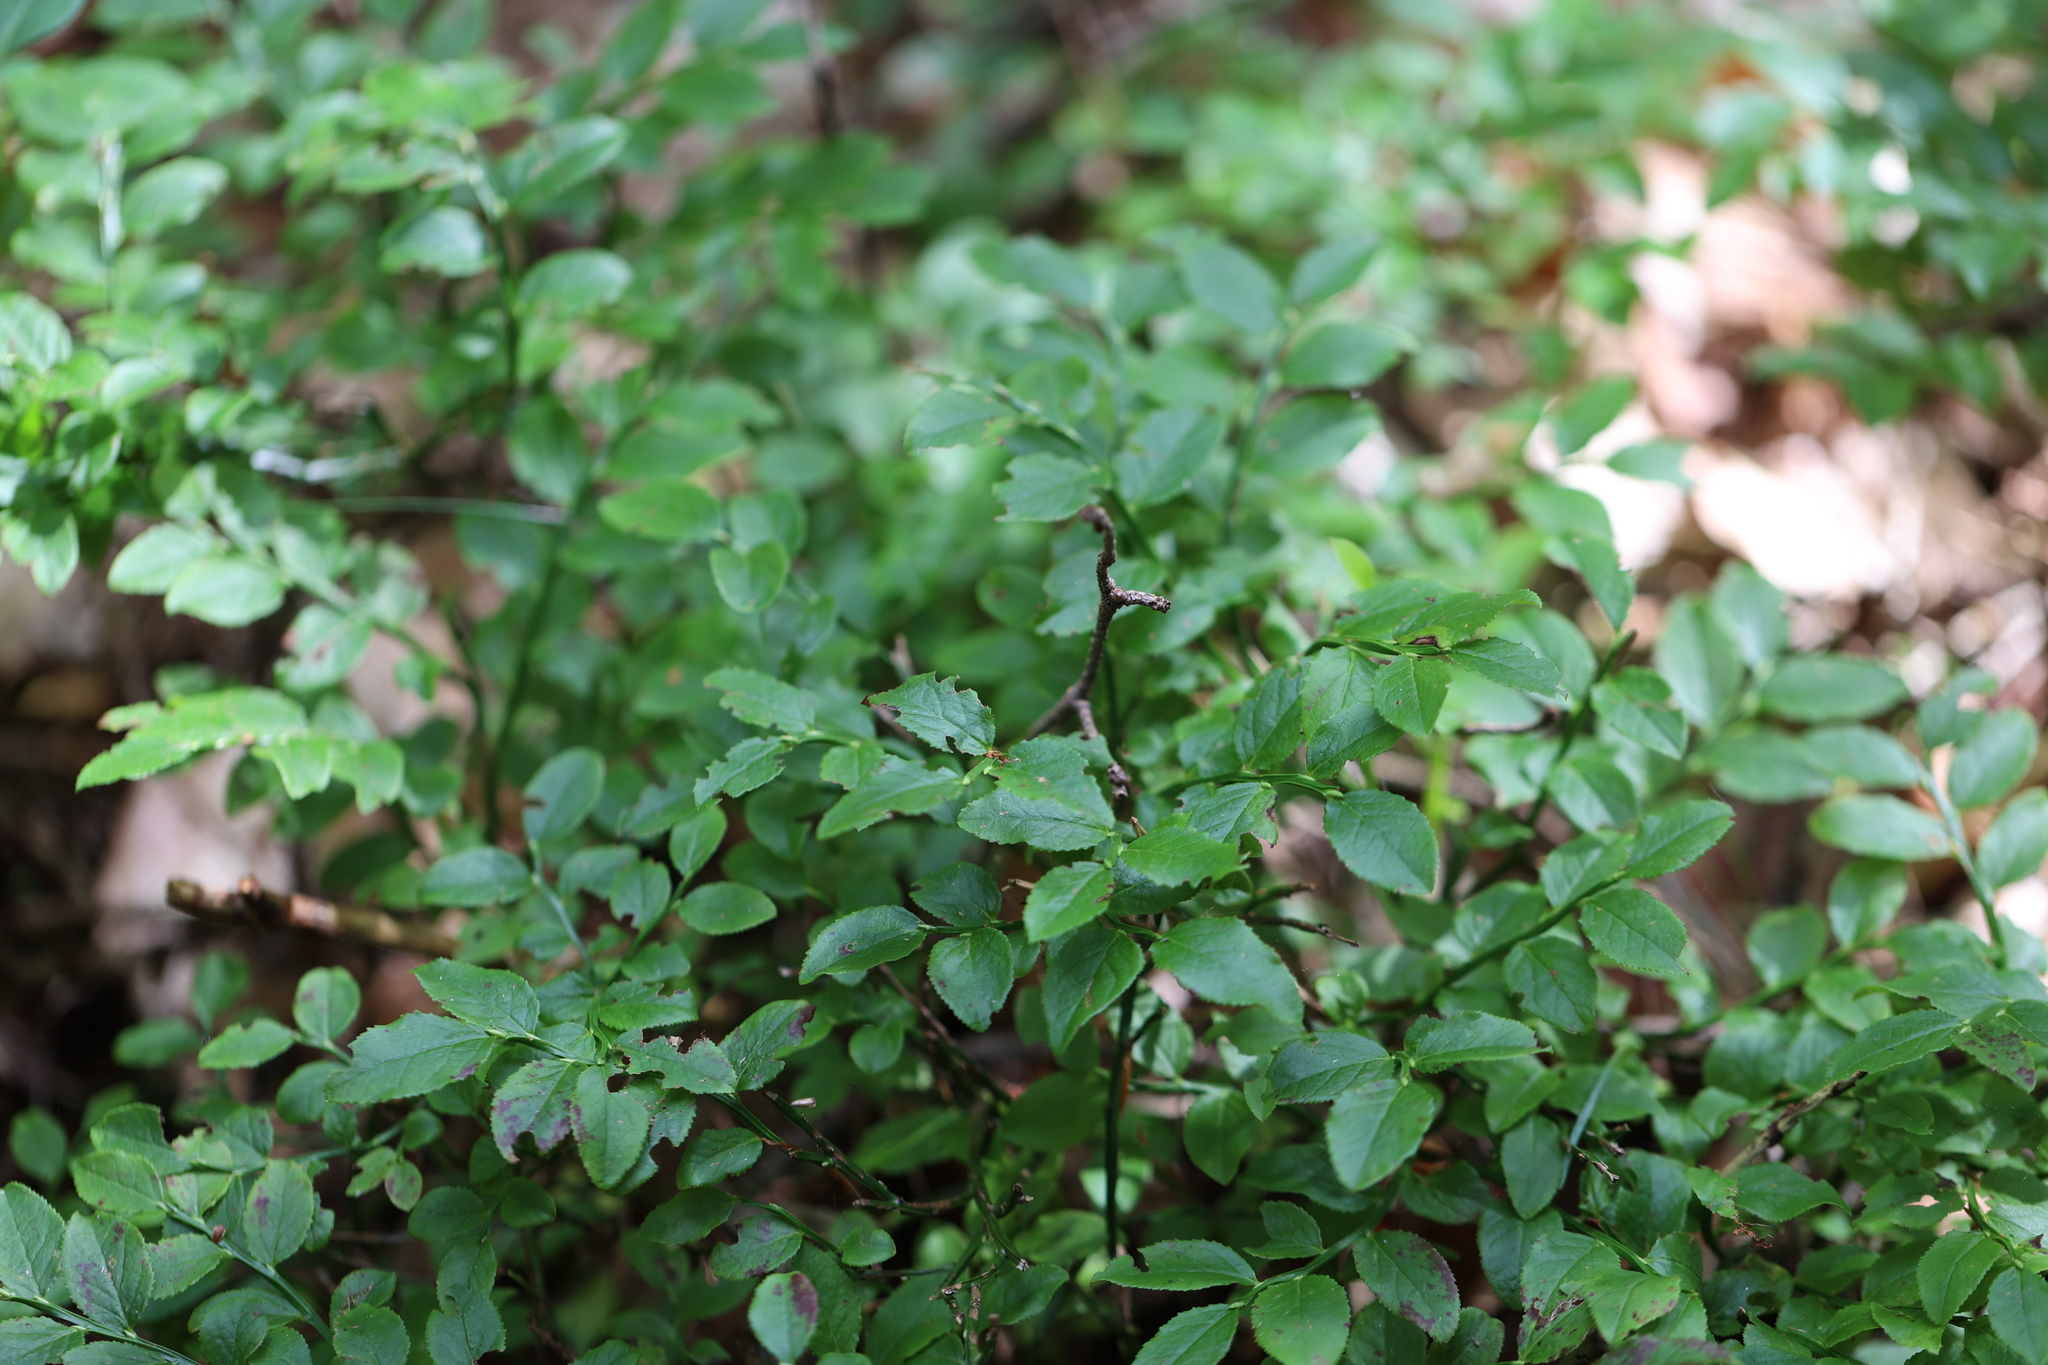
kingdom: Plantae
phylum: Tracheophyta
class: Magnoliopsida
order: Ericales
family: Ericaceae
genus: Vaccinium
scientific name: Vaccinium myrtillus
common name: Bilberry
